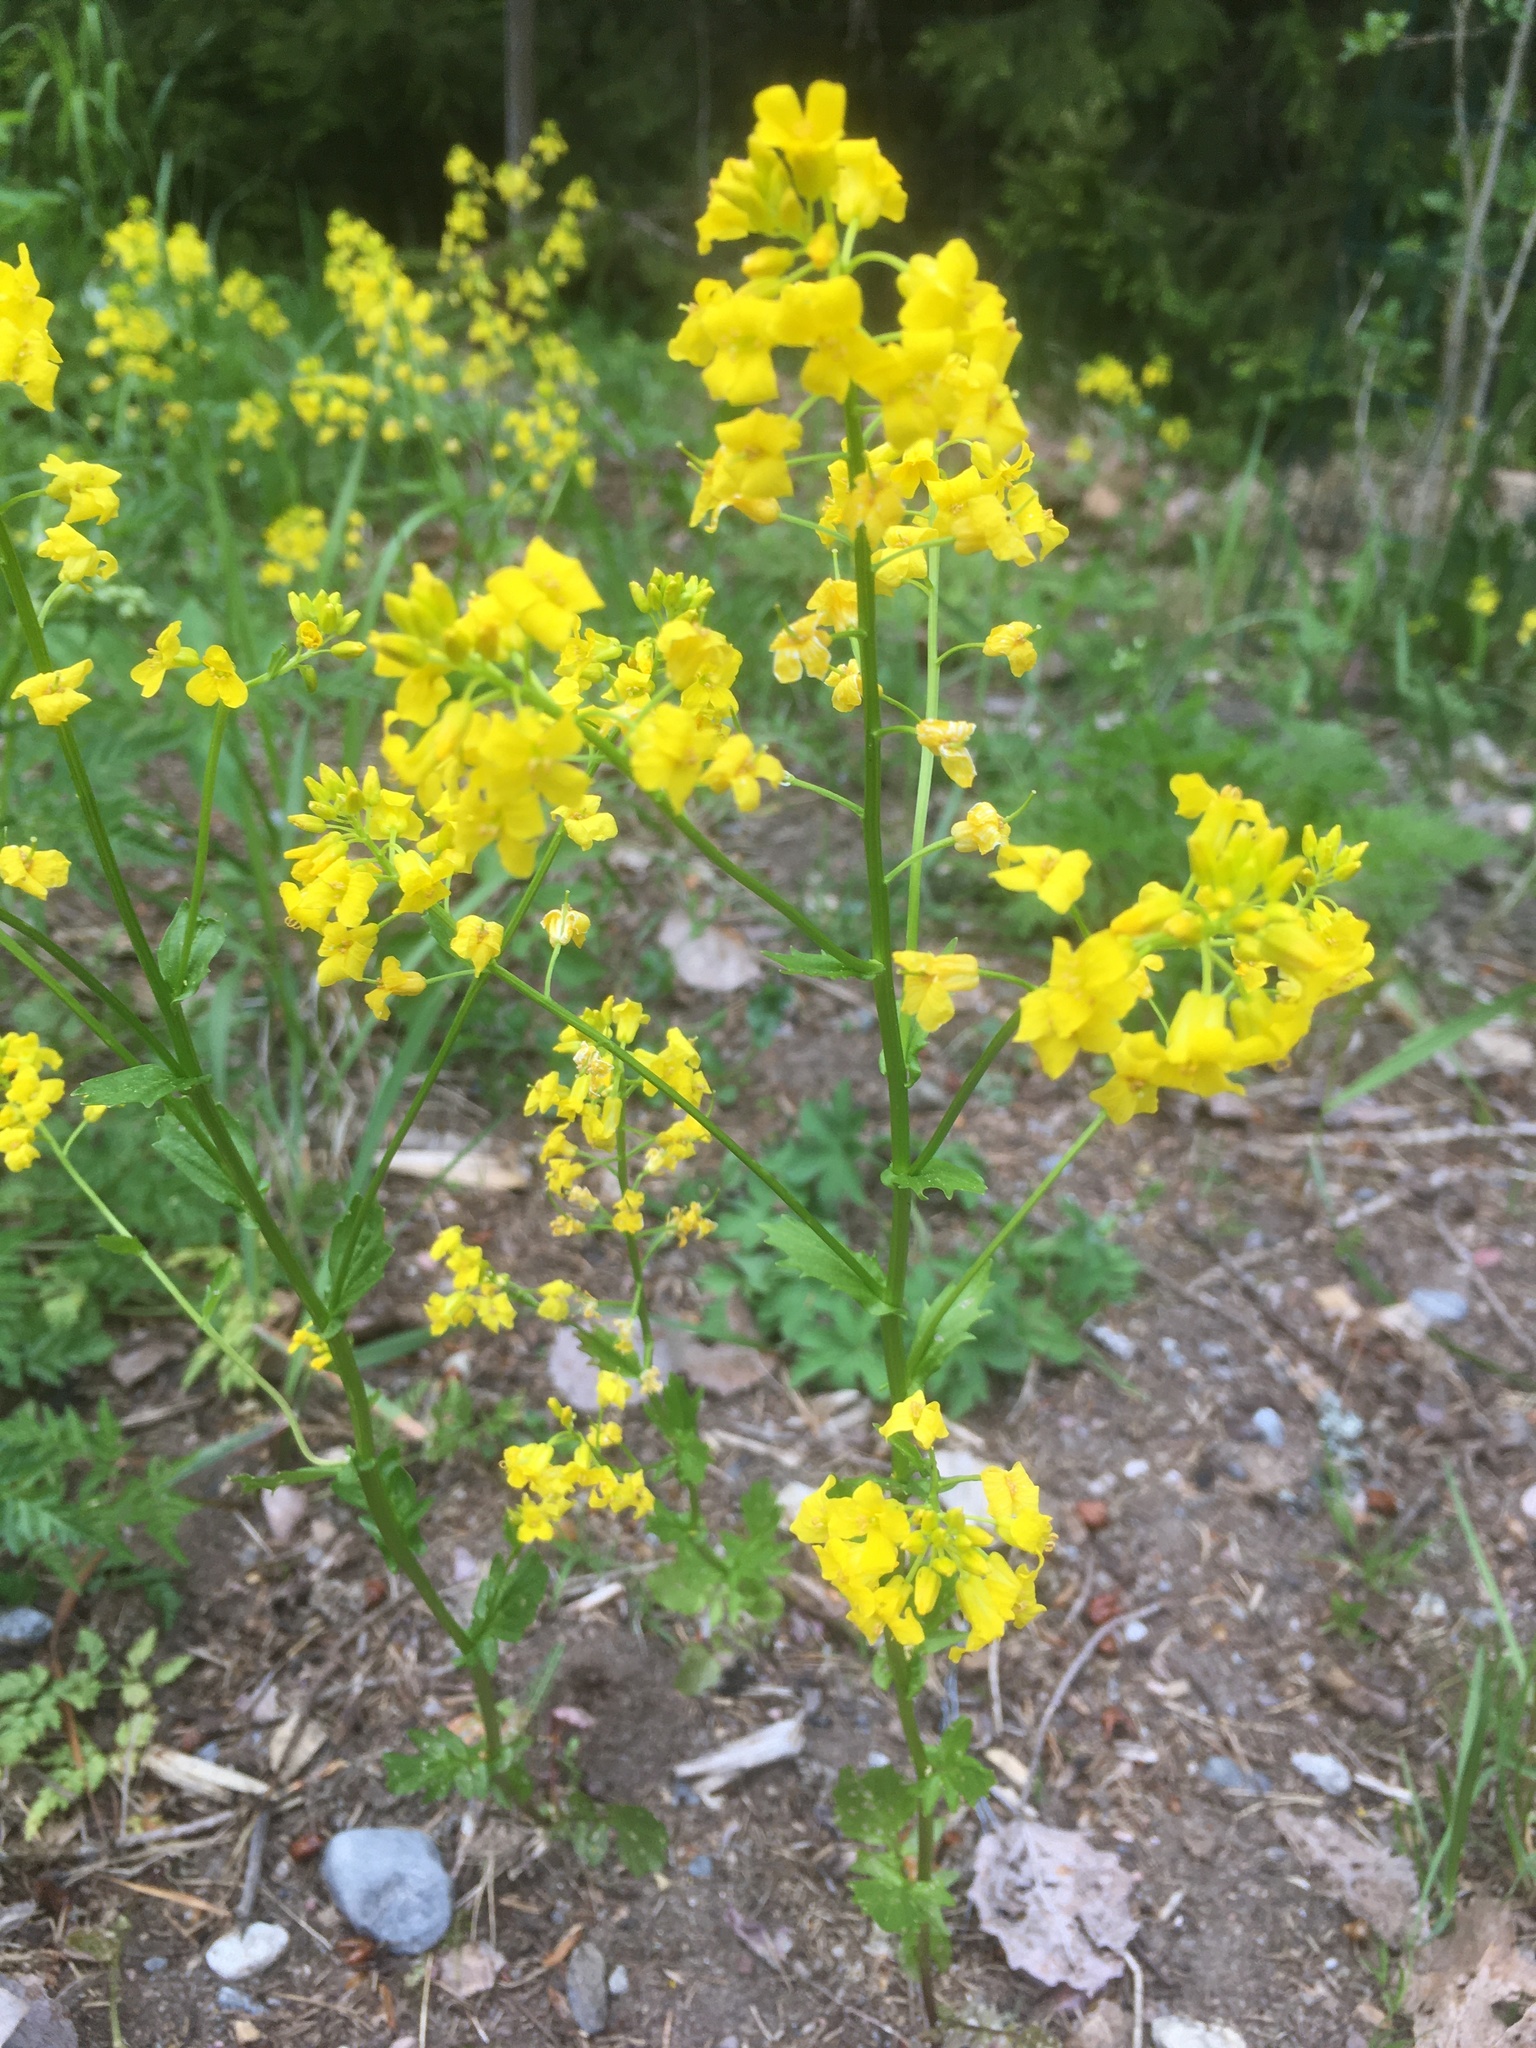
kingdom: Plantae
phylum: Tracheophyta
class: Magnoliopsida
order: Brassicales
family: Brassicaceae
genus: Barbarea
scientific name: Barbarea vulgaris
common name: Cressy-greens
